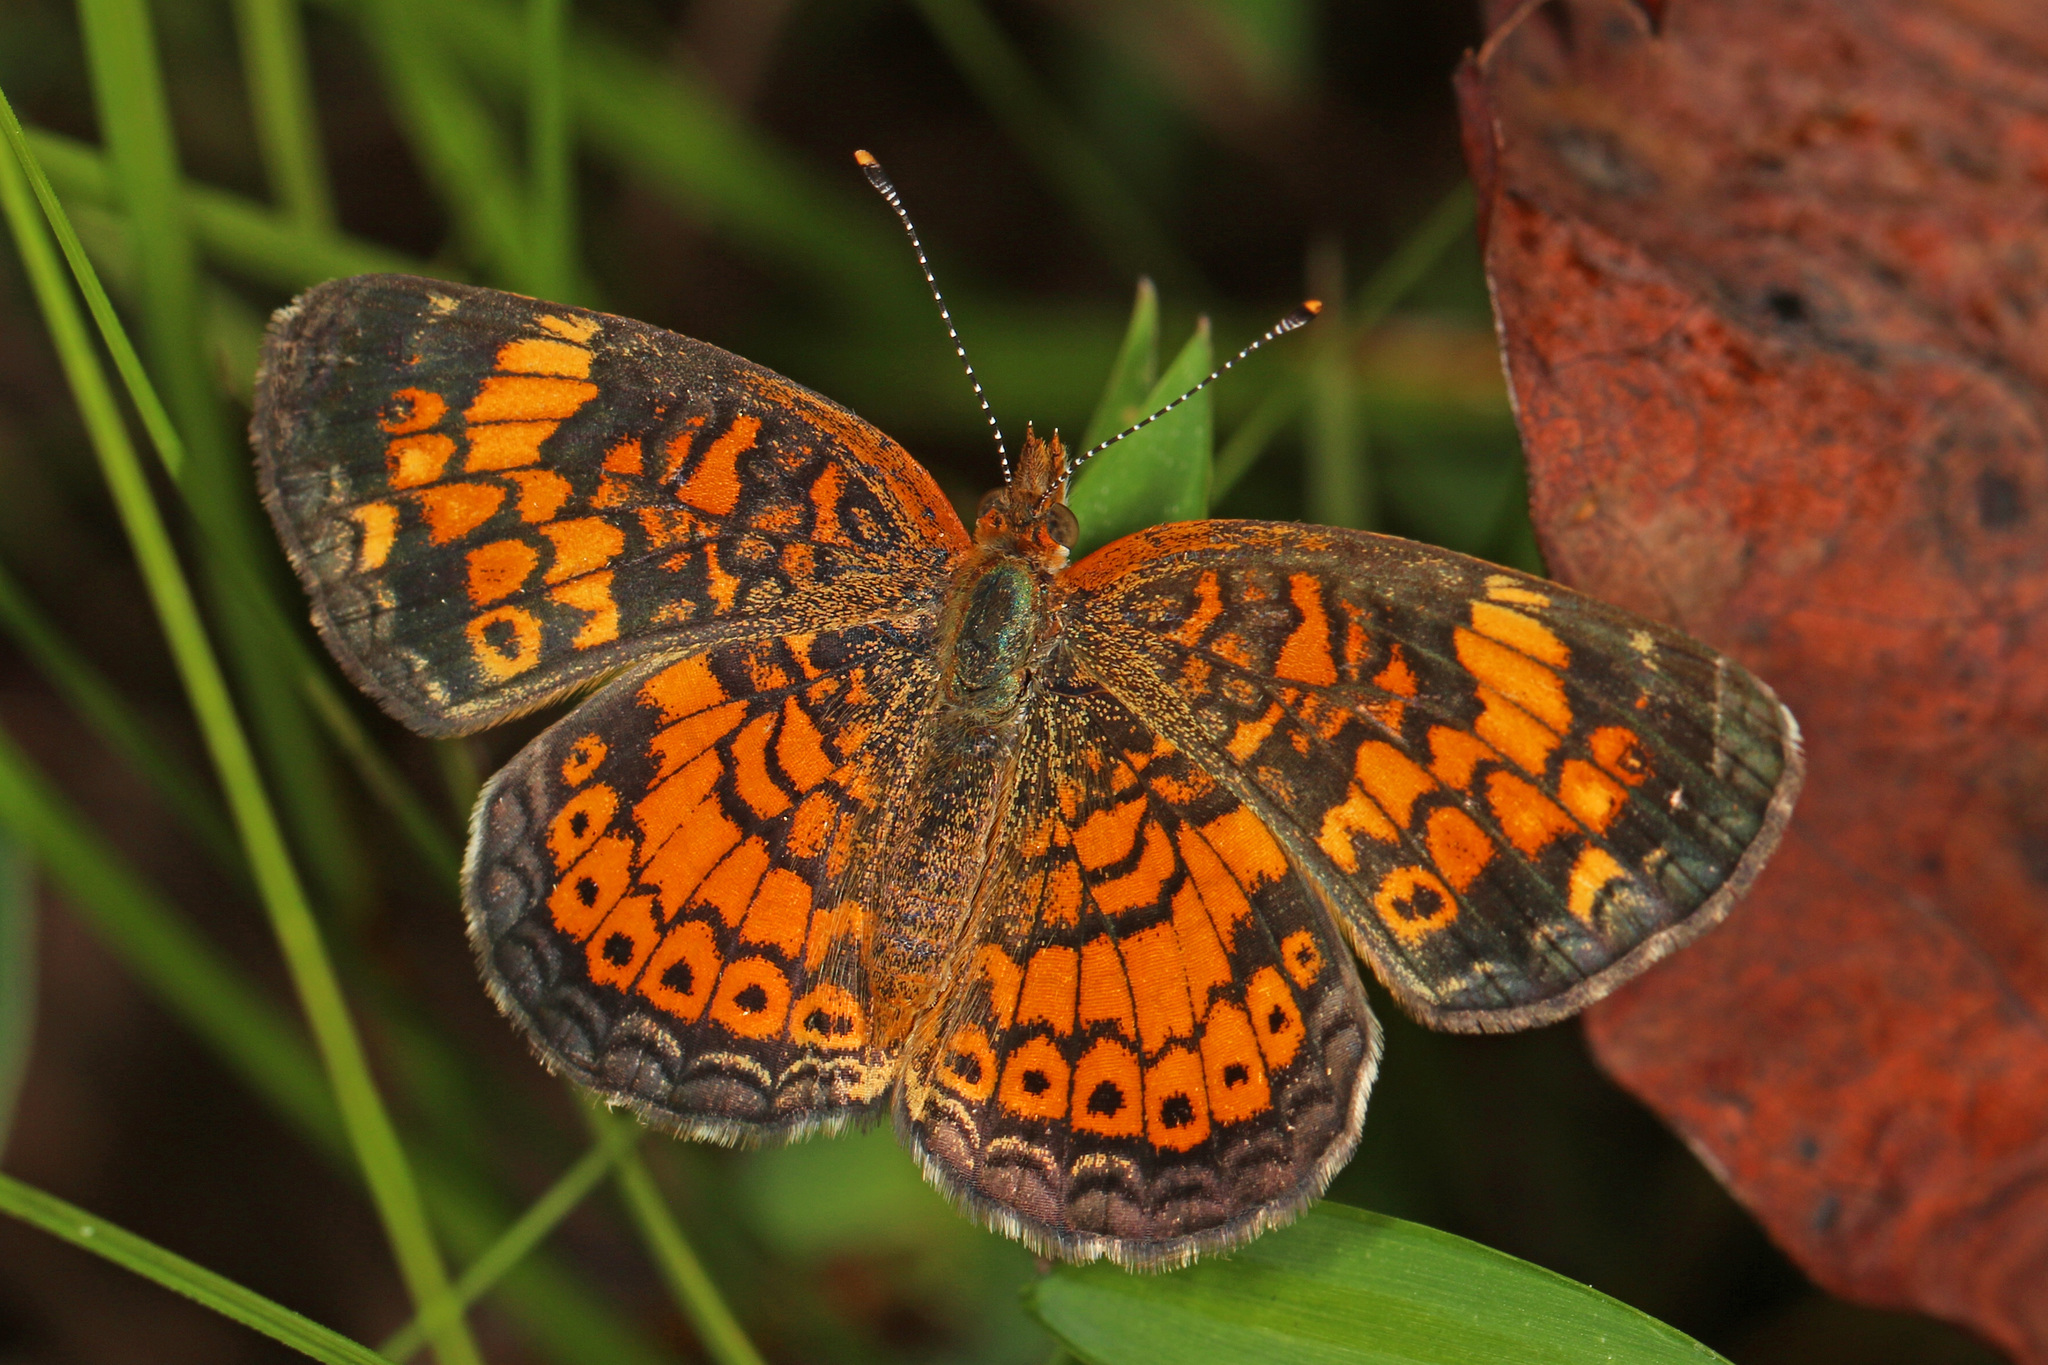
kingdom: Animalia
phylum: Arthropoda
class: Insecta
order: Lepidoptera
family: Nymphalidae
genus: Phyciodes
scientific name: Phyciodes tharos
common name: Pearl crescent
